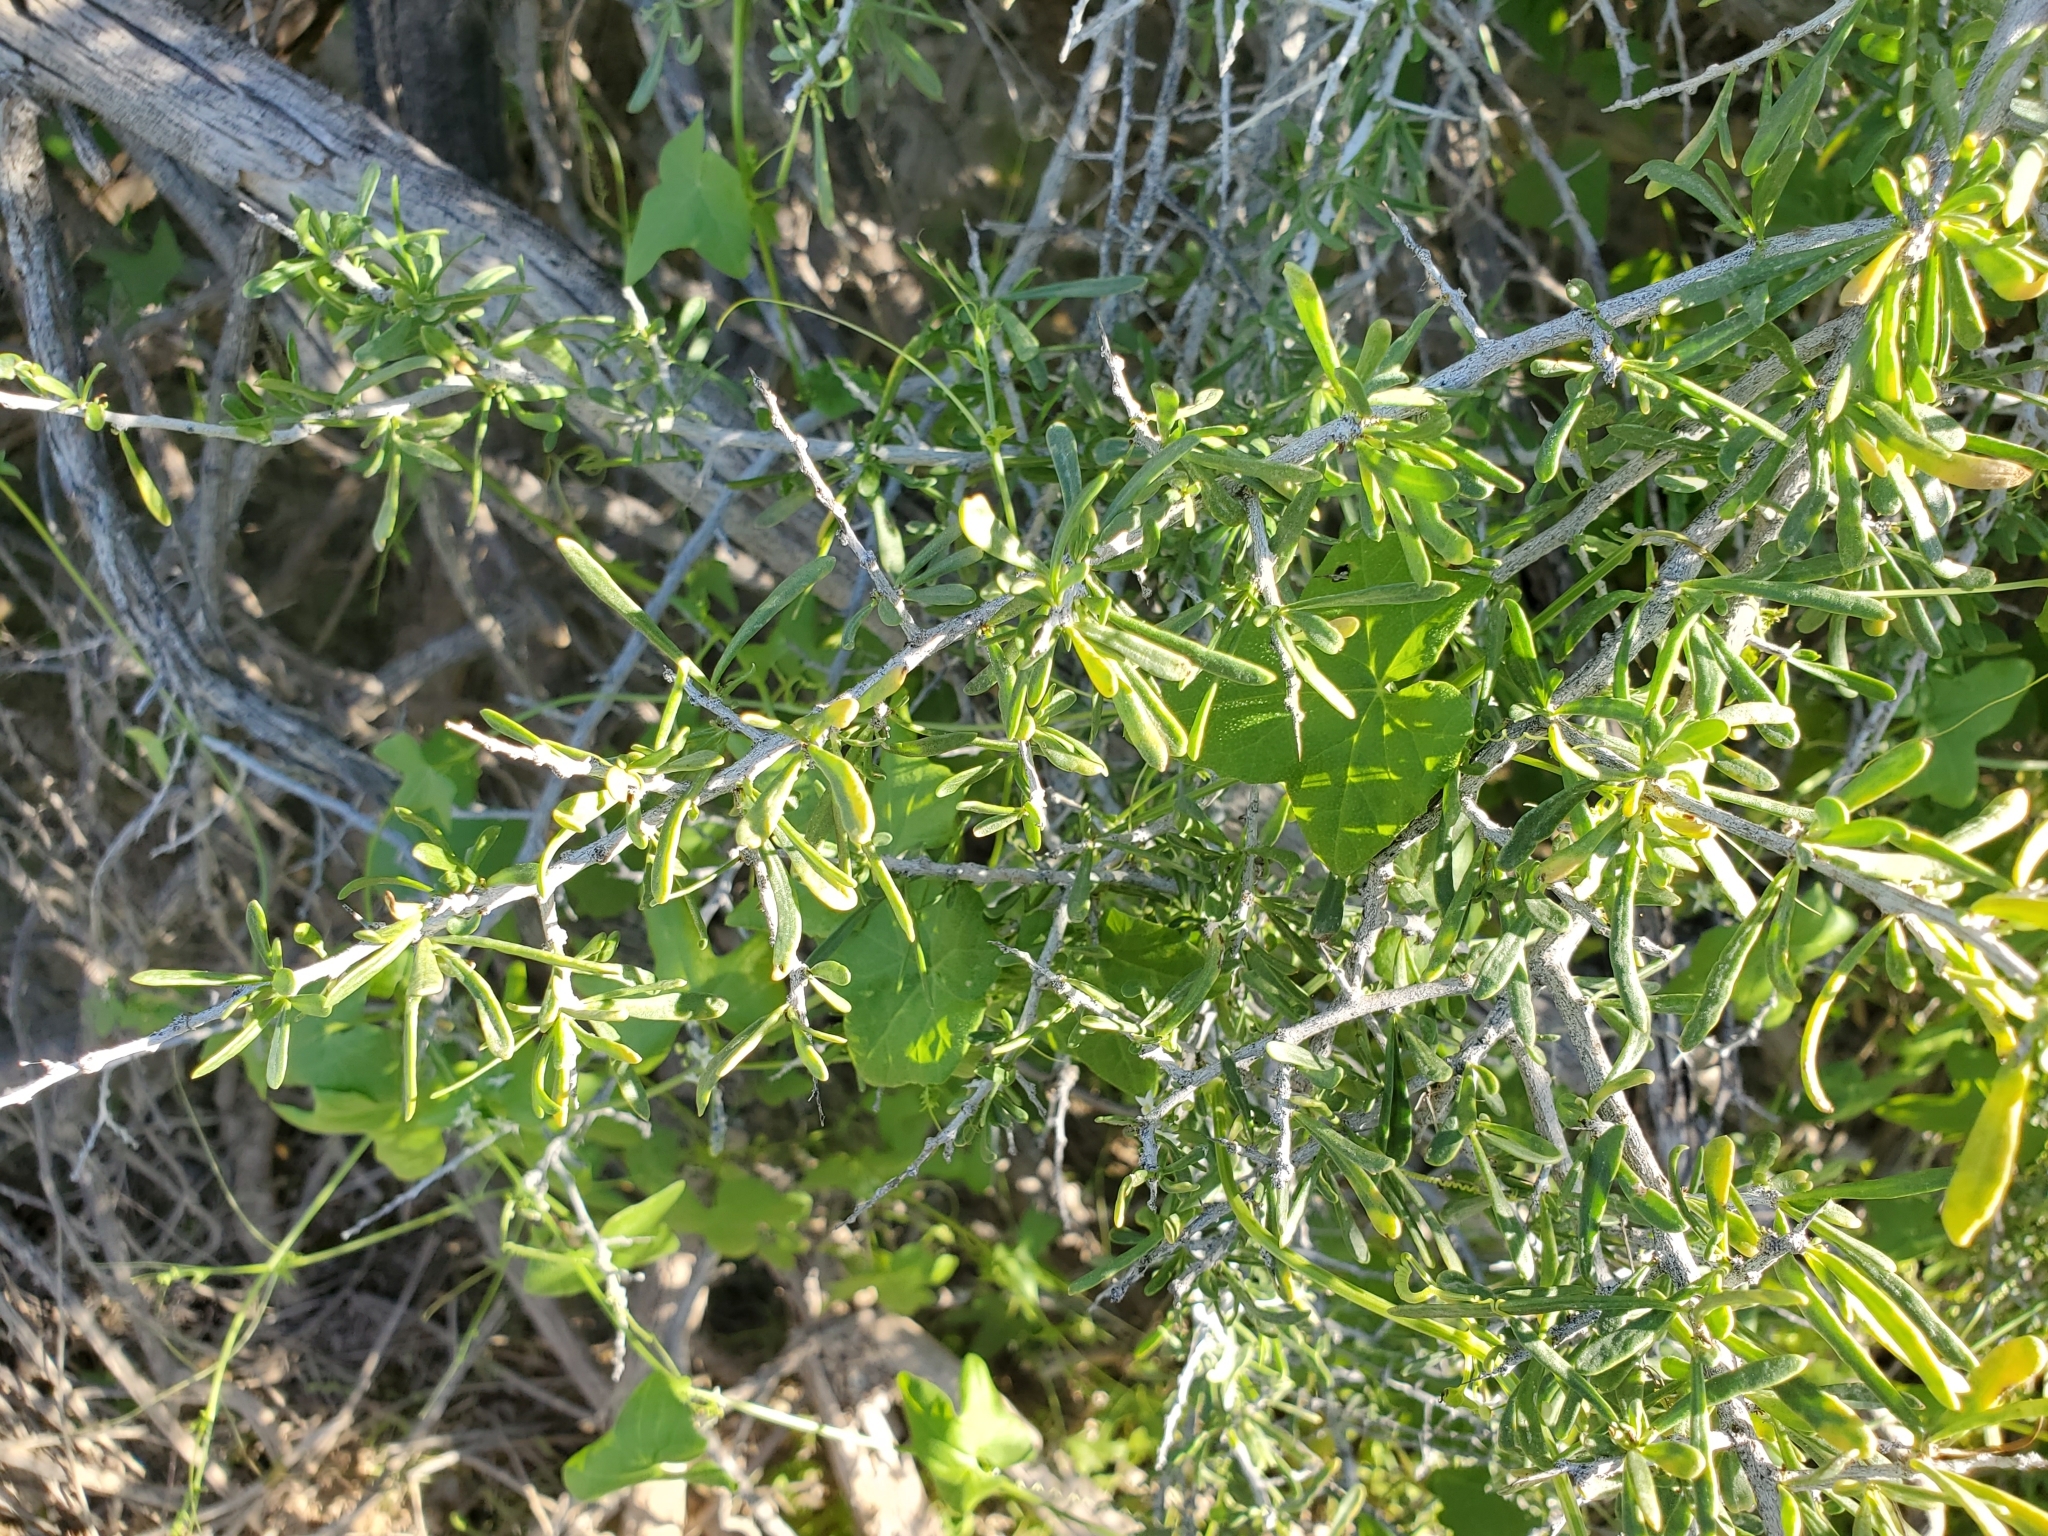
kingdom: Plantae
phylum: Tracheophyta
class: Magnoliopsida
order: Solanales
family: Solanaceae
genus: Lycium
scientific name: Lycium andersonii
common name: Water-jacket
